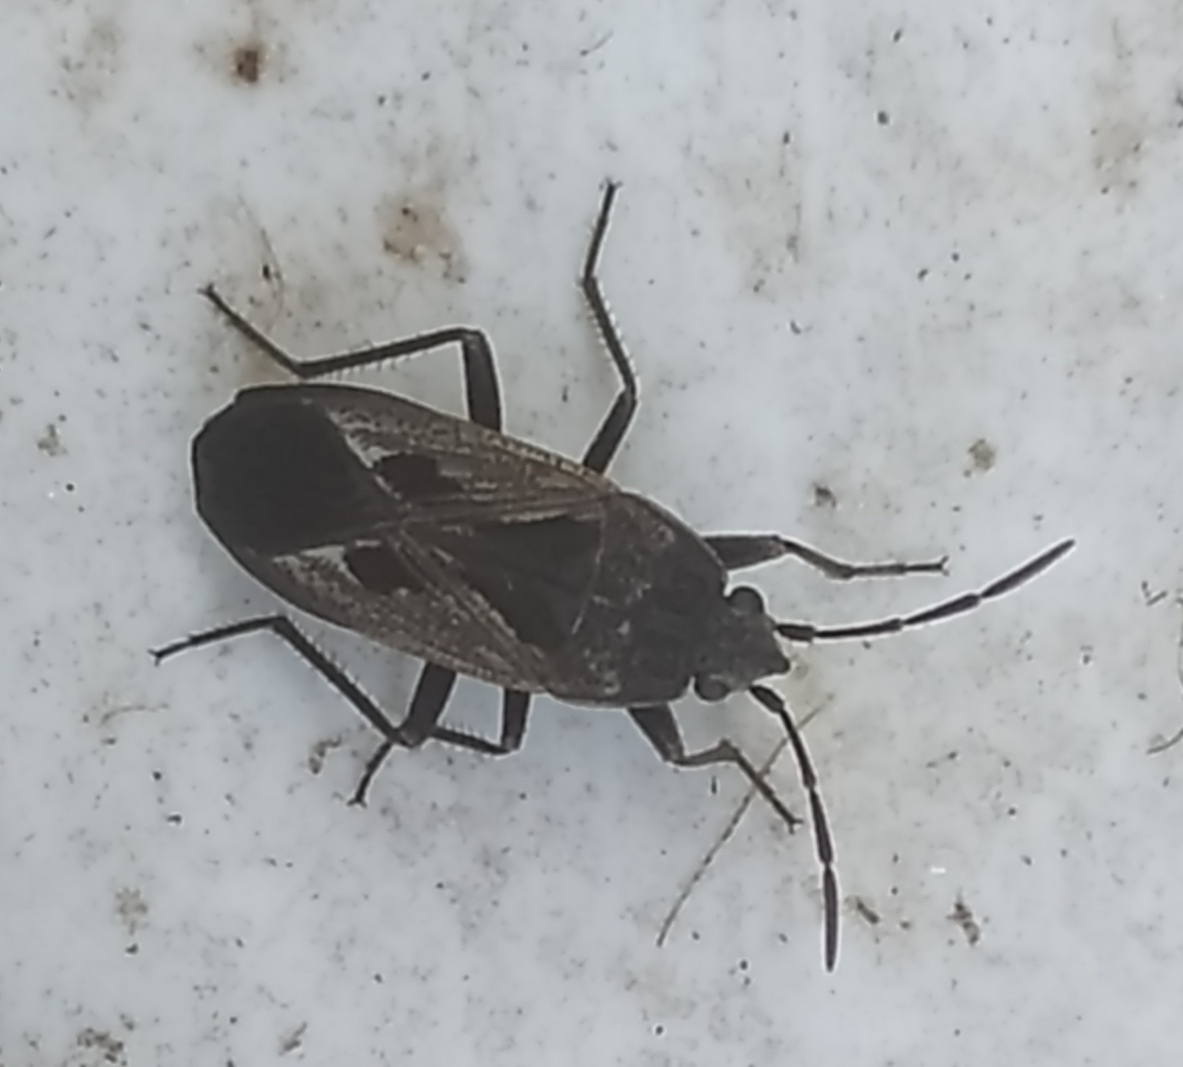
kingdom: Animalia
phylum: Arthropoda
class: Insecta
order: Hemiptera
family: Rhyparochromidae
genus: Rhyparochromus
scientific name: Rhyparochromus pini
